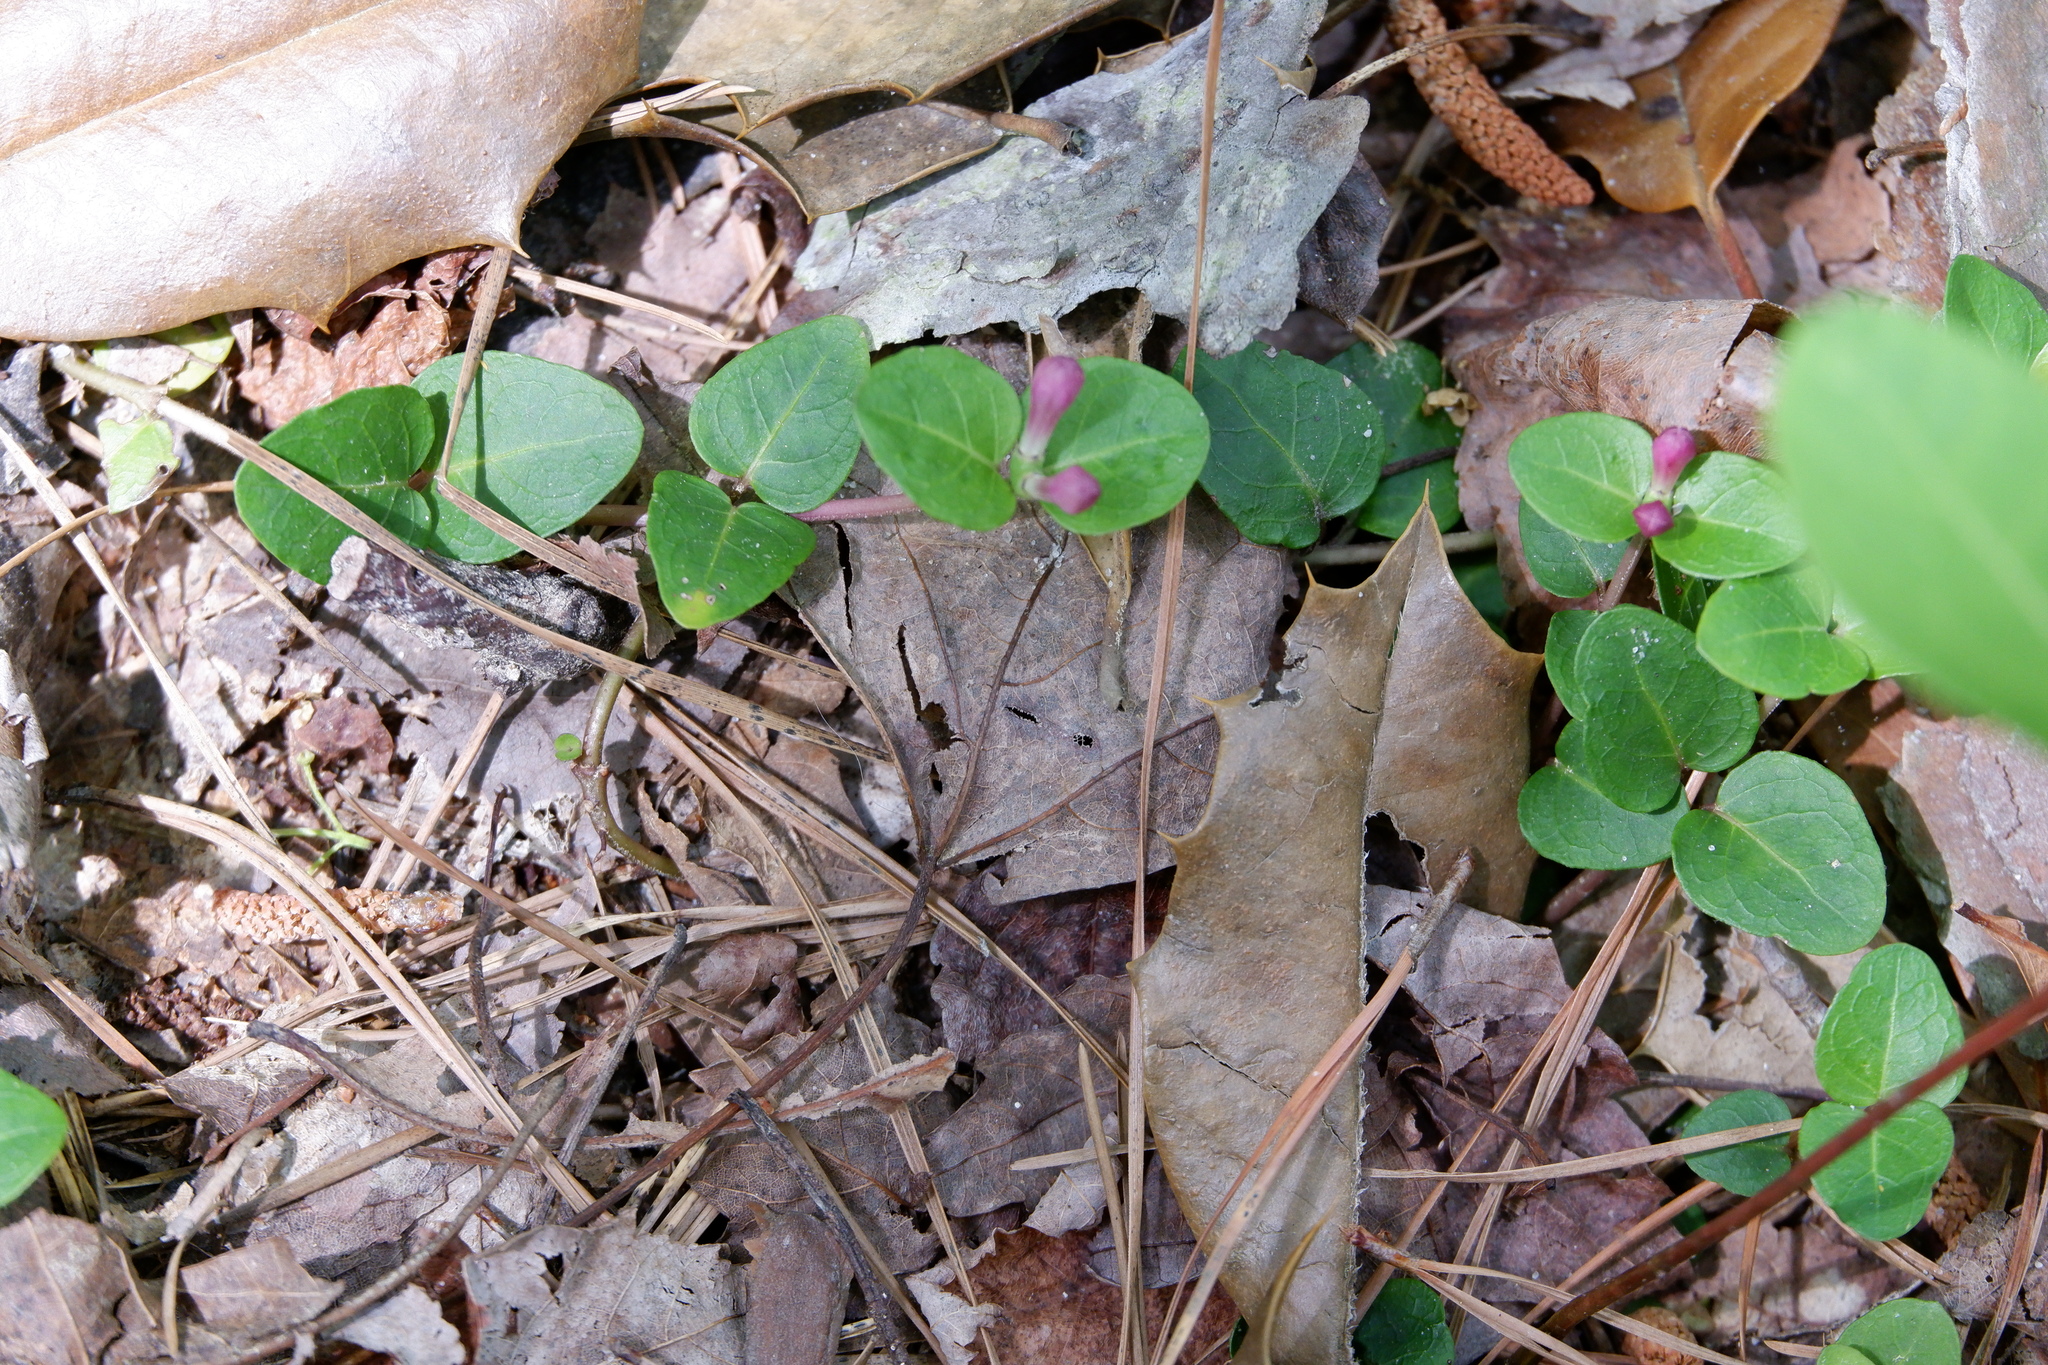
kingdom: Plantae
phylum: Tracheophyta
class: Magnoliopsida
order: Gentianales
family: Rubiaceae
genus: Mitchella
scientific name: Mitchella repens
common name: Partridge-berry
